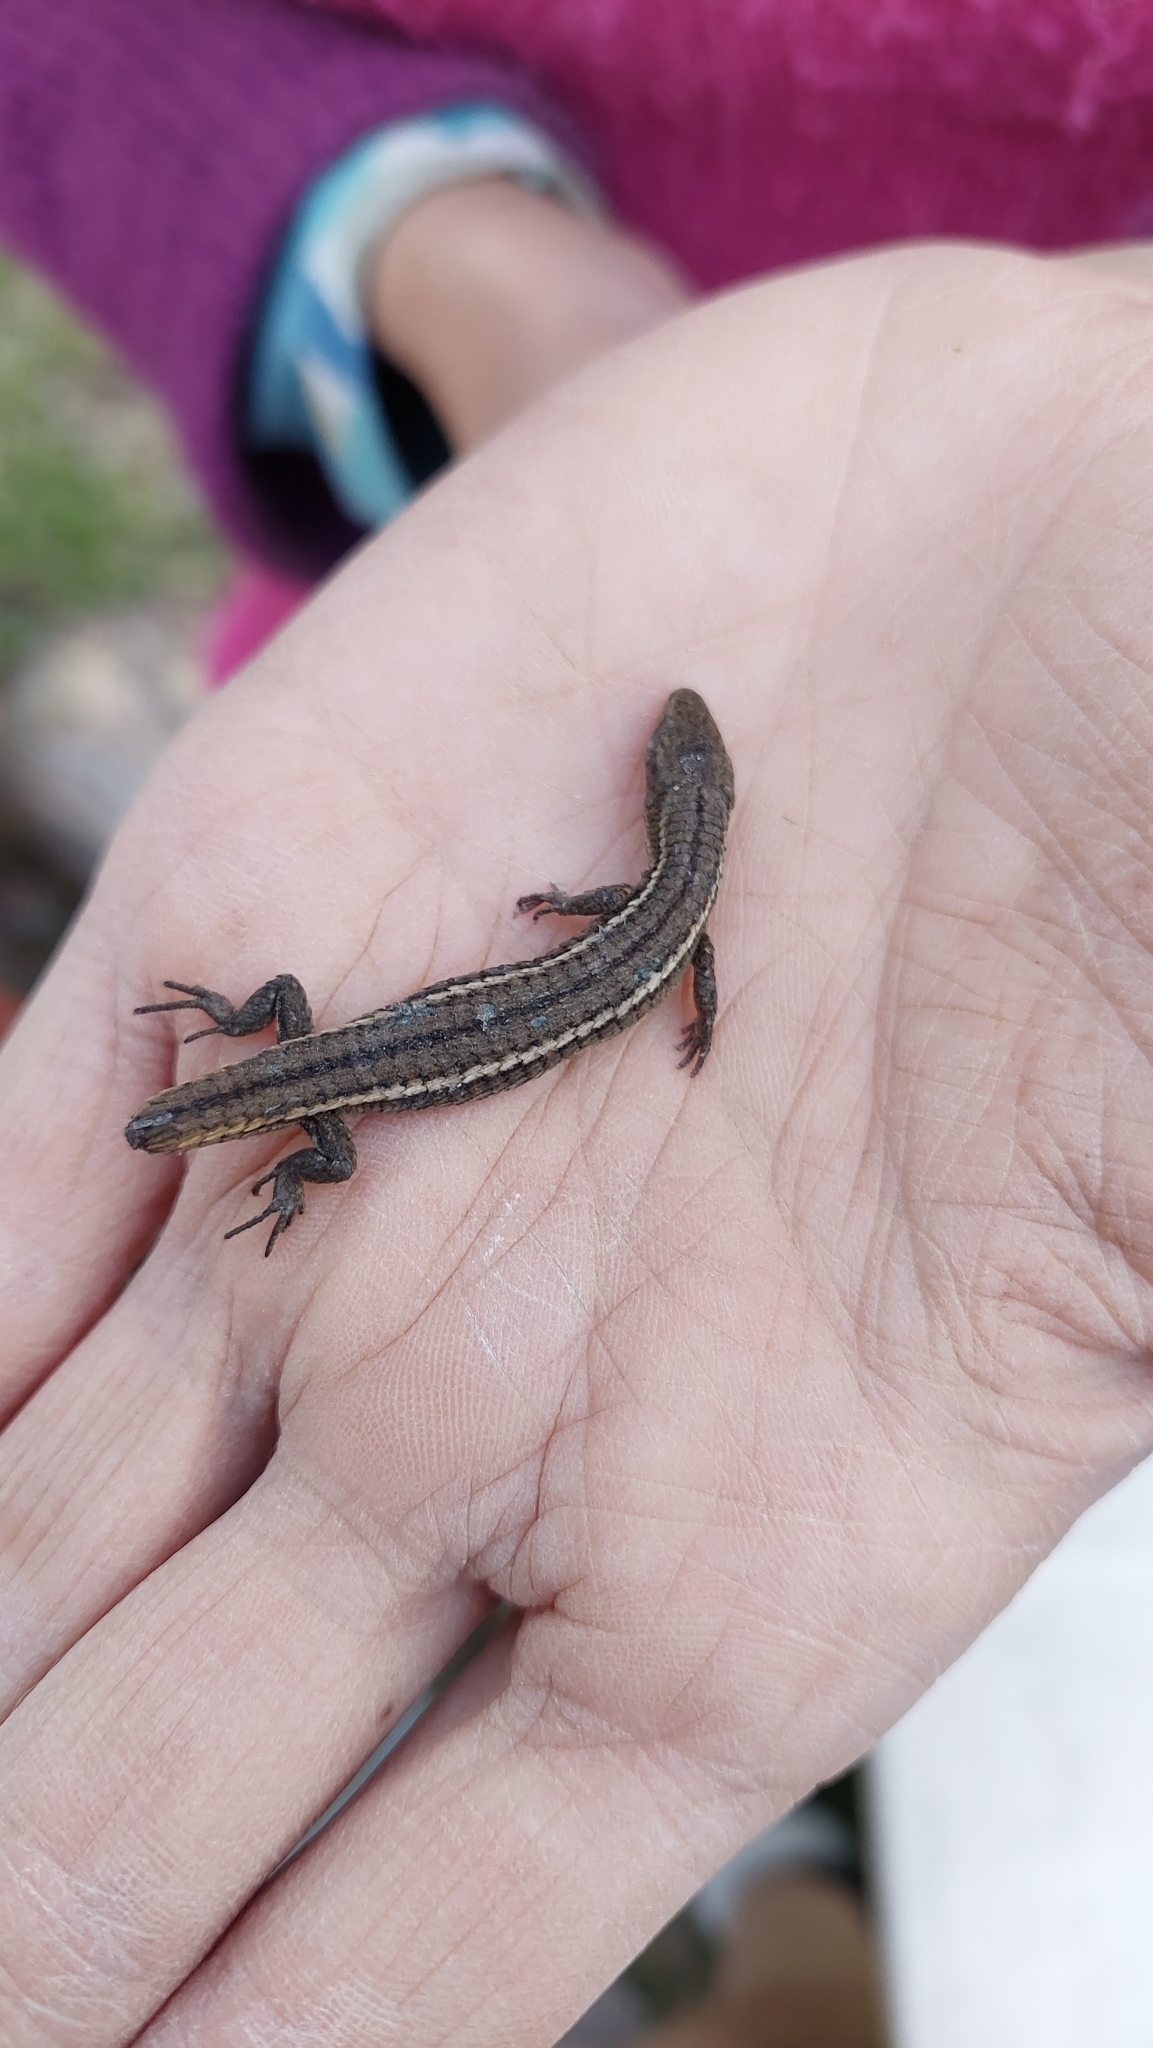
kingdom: Animalia
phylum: Chordata
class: Squamata
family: Gymnophthalmidae
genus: Cercosaura
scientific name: Cercosaura schreibersii
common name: Schreibers' many-fingered teiid
